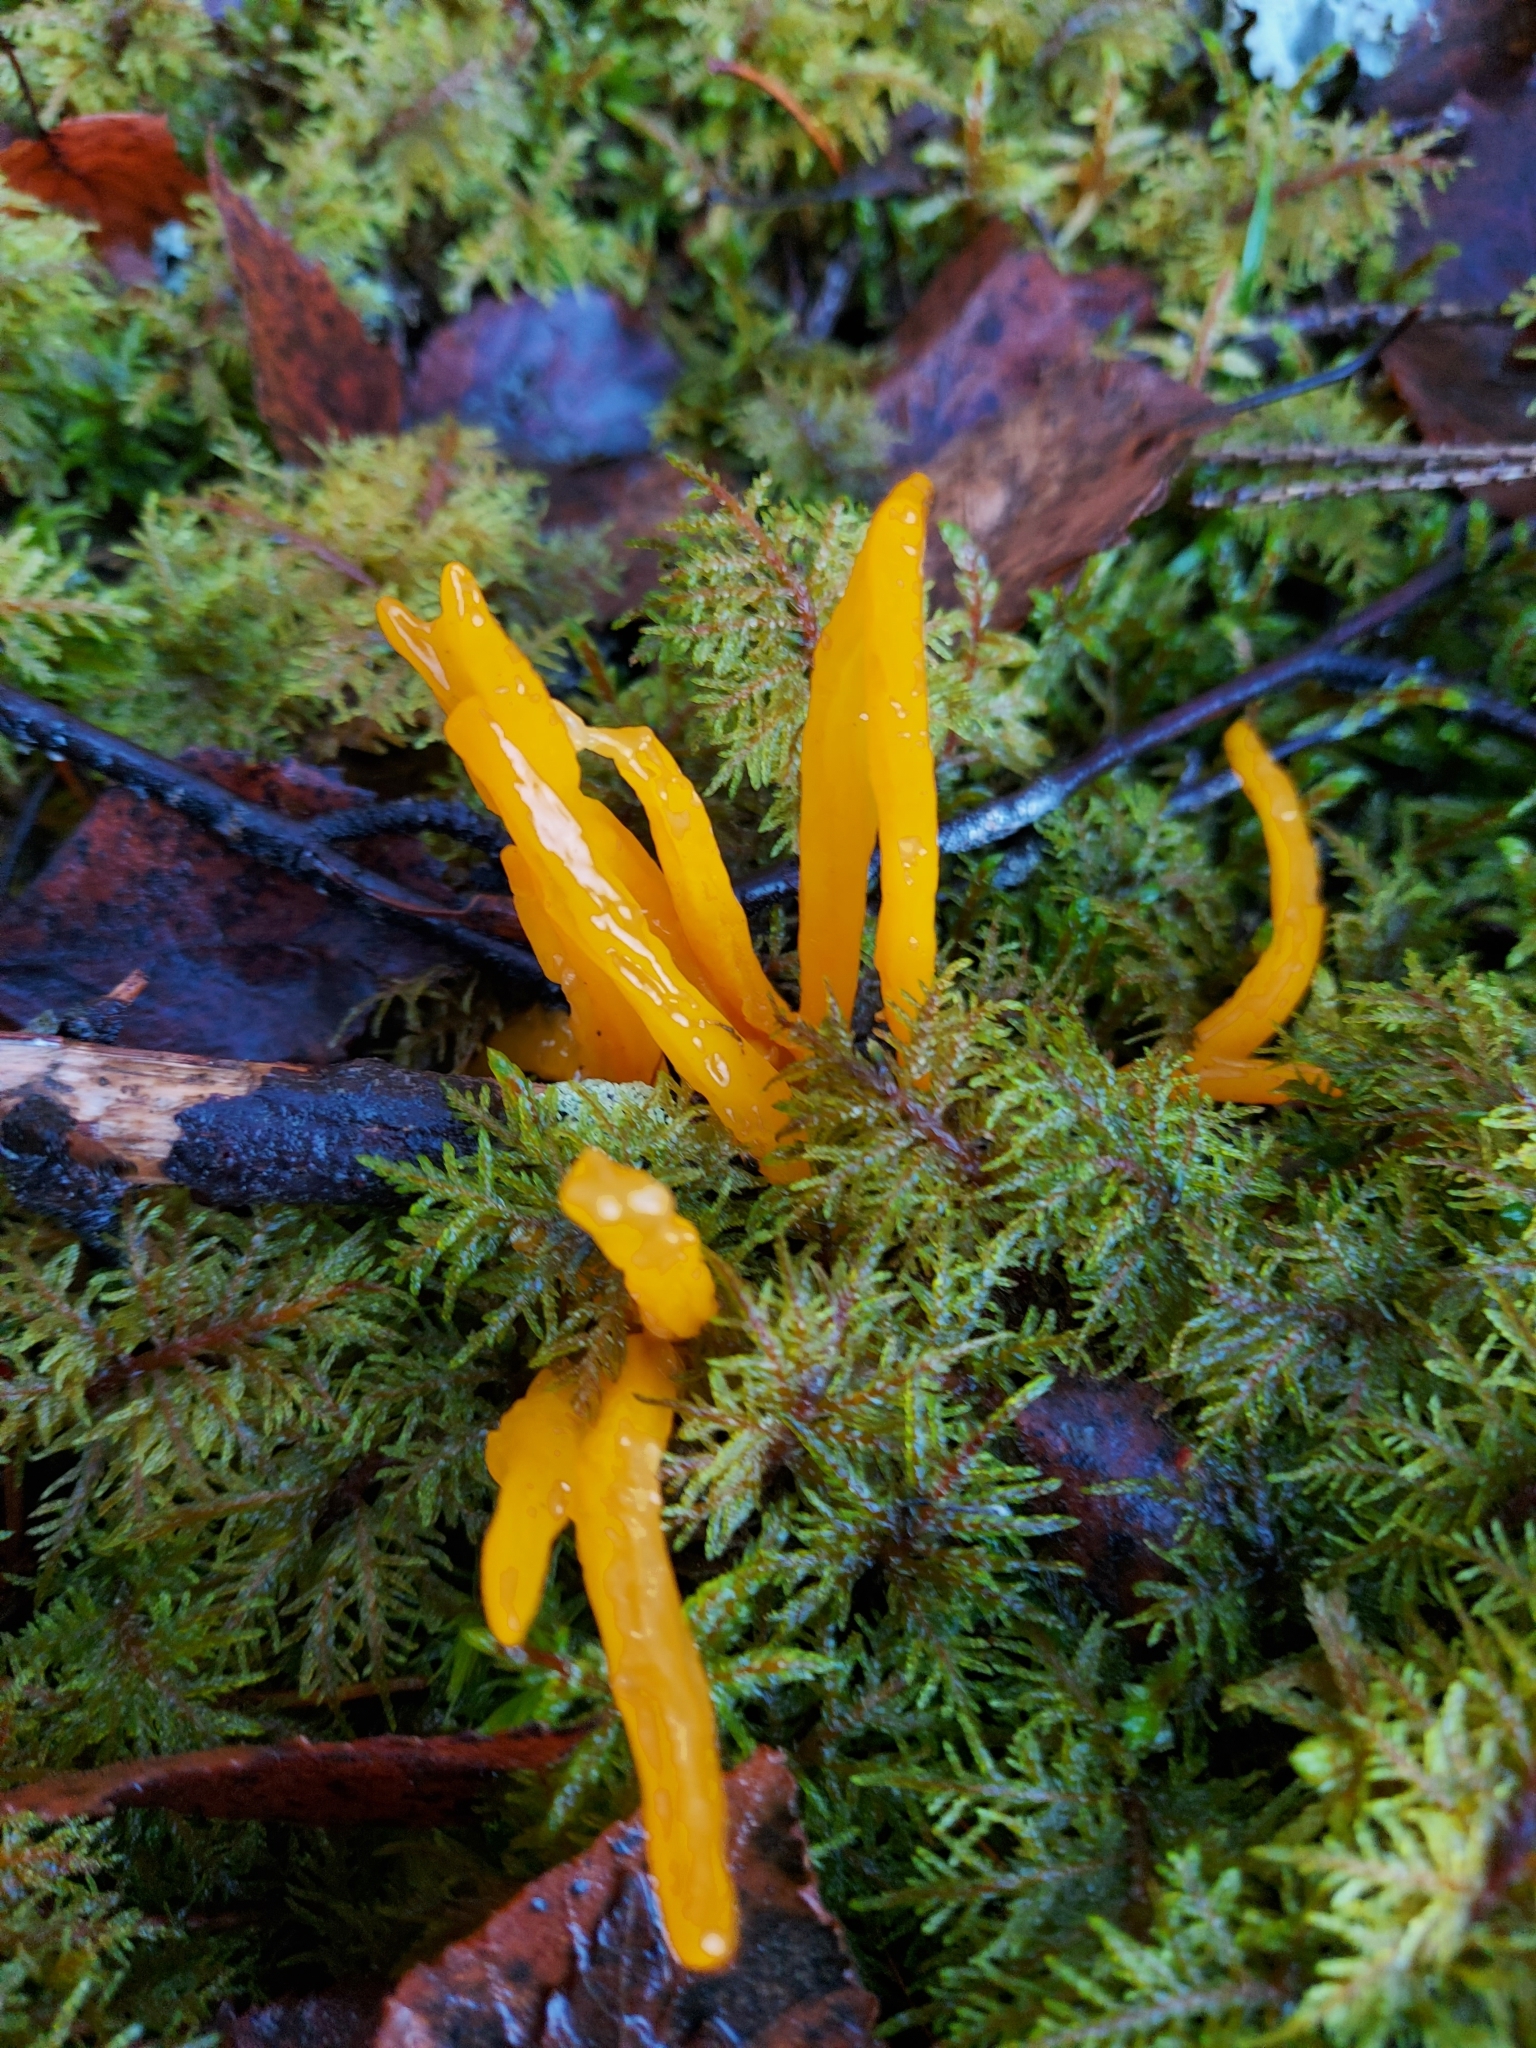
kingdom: Fungi
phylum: Basidiomycota
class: Dacrymycetes
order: Dacrymycetales
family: Dacrymycetaceae
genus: Calocera
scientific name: Calocera viscosa
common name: Yellow stagshorn
